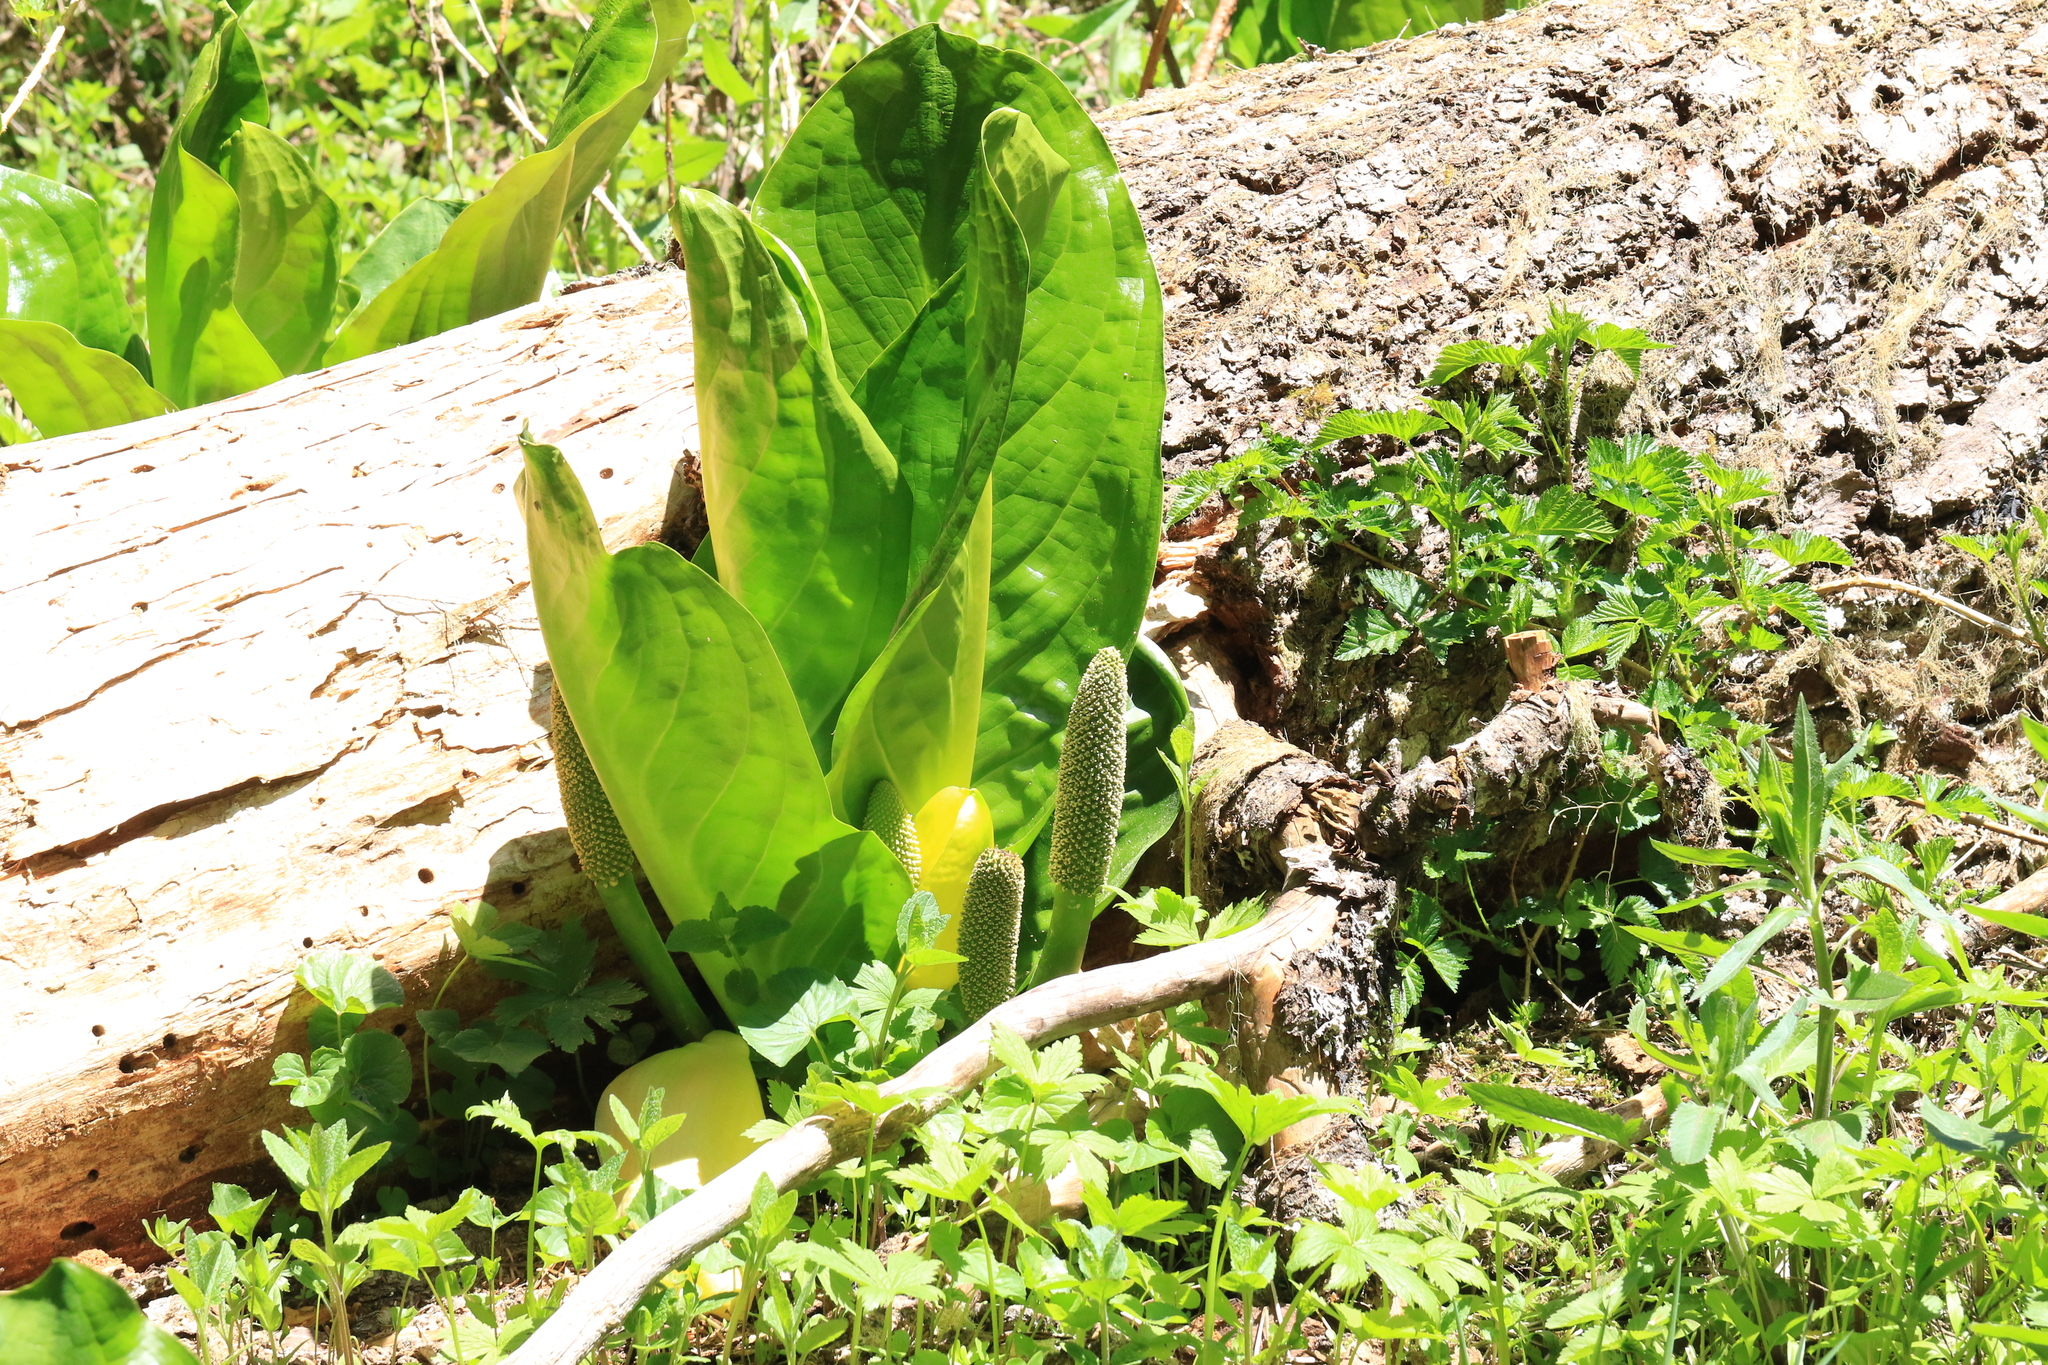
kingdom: Plantae
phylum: Tracheophyta
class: Liliopsida
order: Alismatales
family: Araceae
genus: Lysichiton
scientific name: Lysichiton americanus
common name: American skunk cabbage
